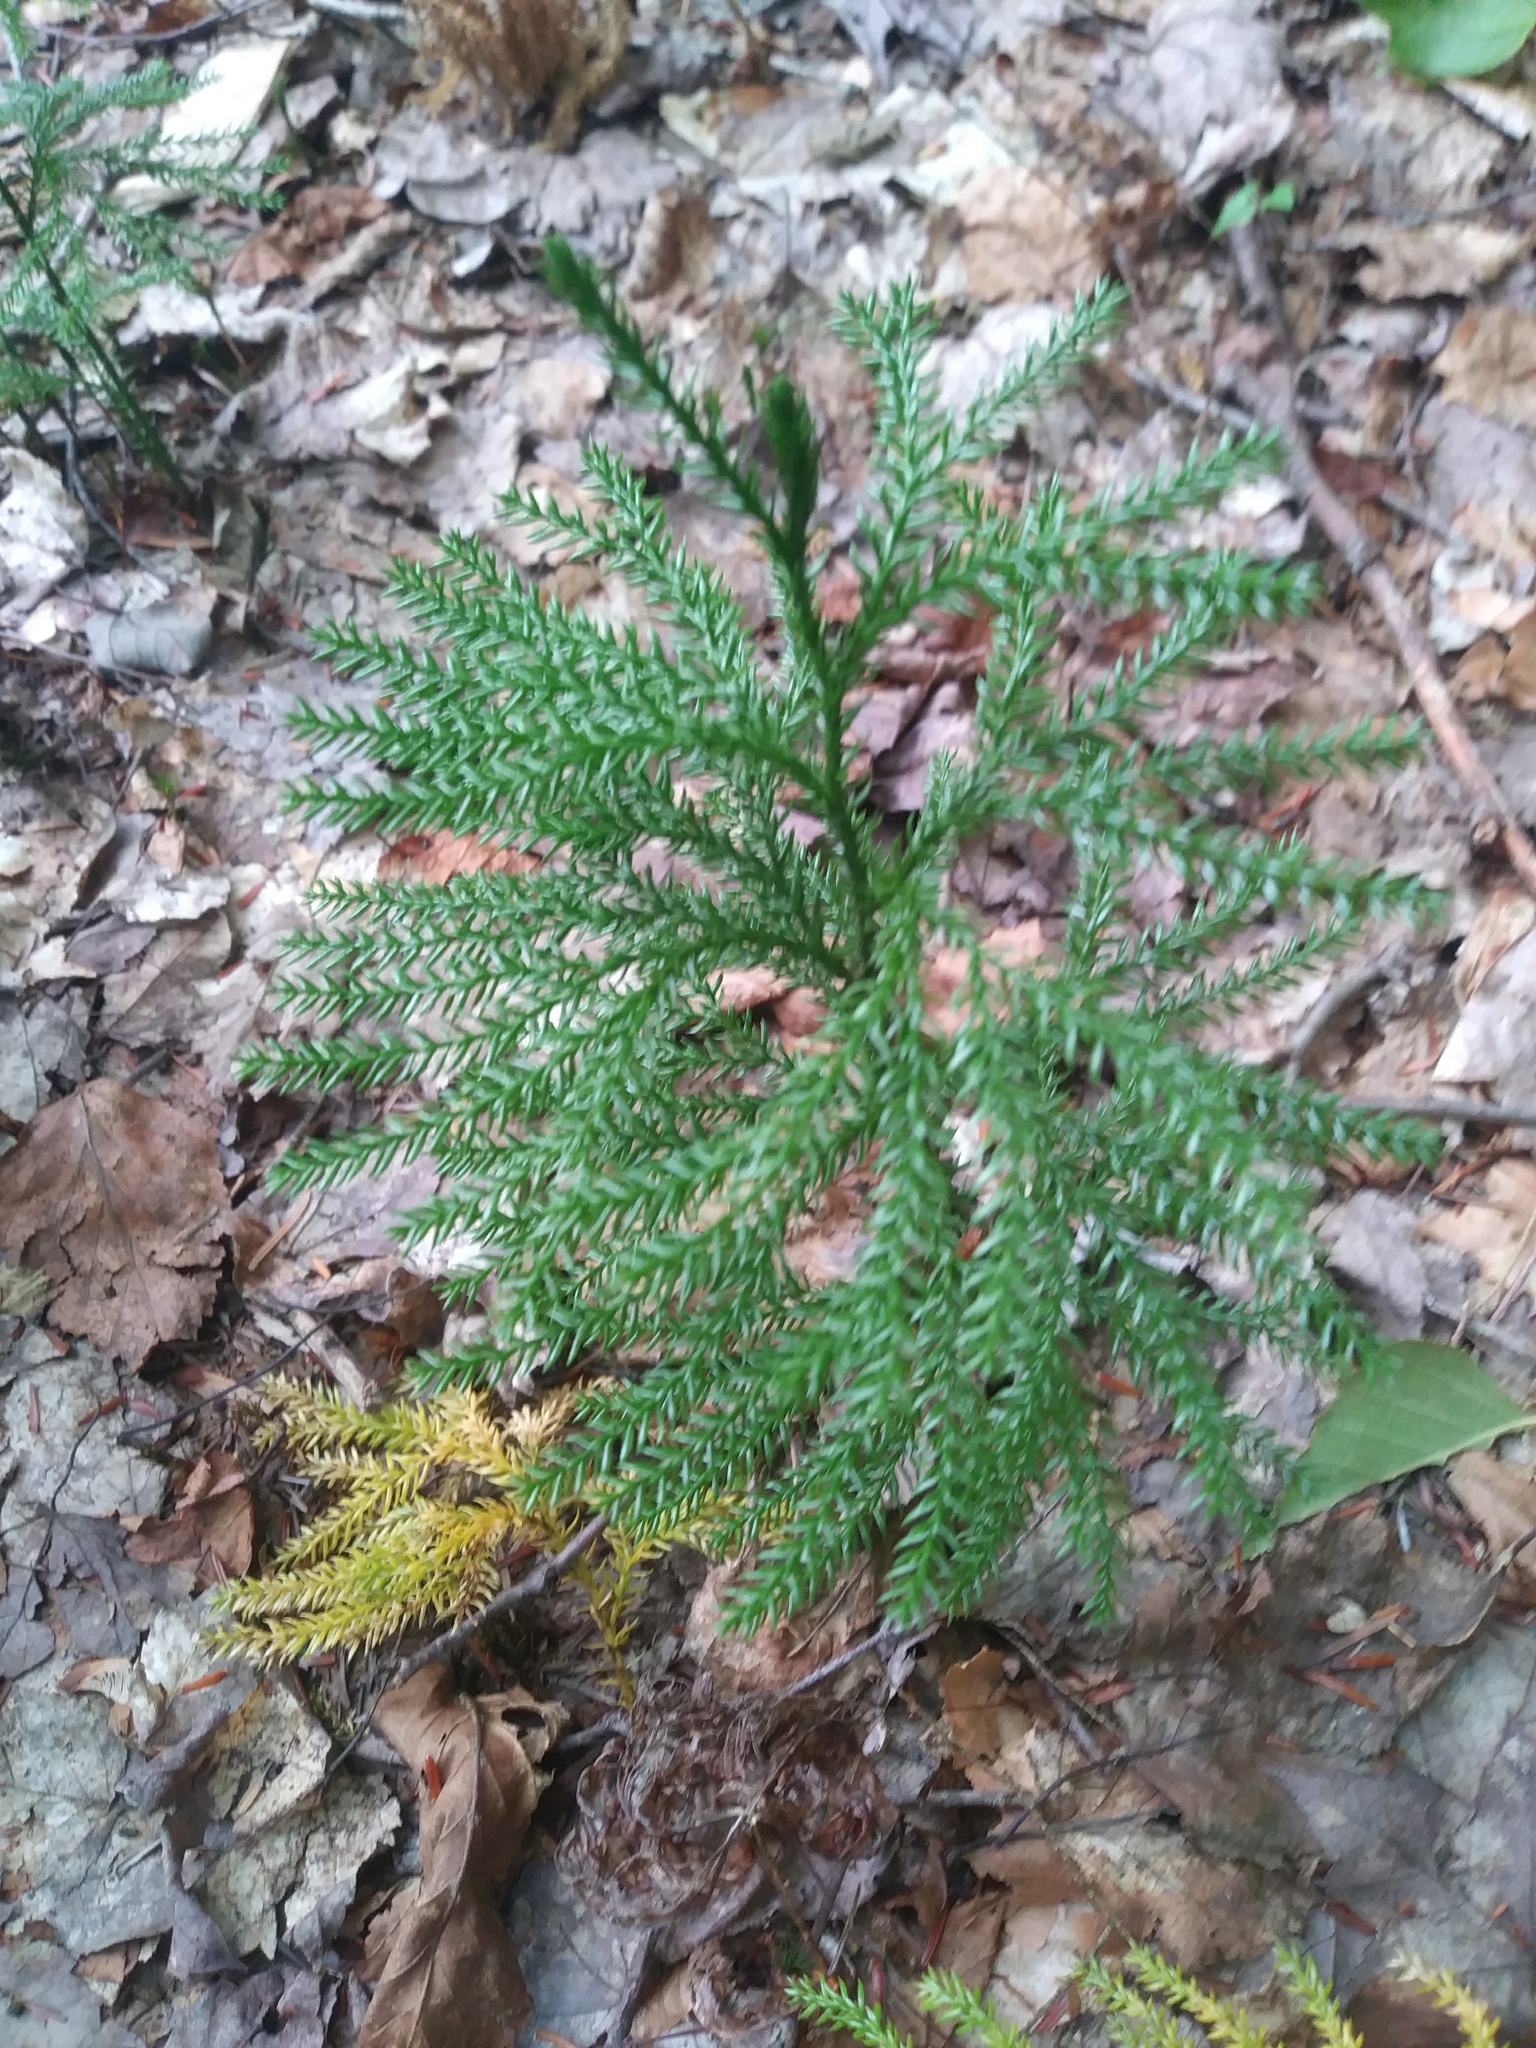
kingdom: Plantae
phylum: Tracheophyta
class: Lycopodiopsida
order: Lycopodiales
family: Lycopodiaceae
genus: Dendrolycopodium
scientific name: Dendrolycopodium dendroideum
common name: Northern tree-clubmoss
